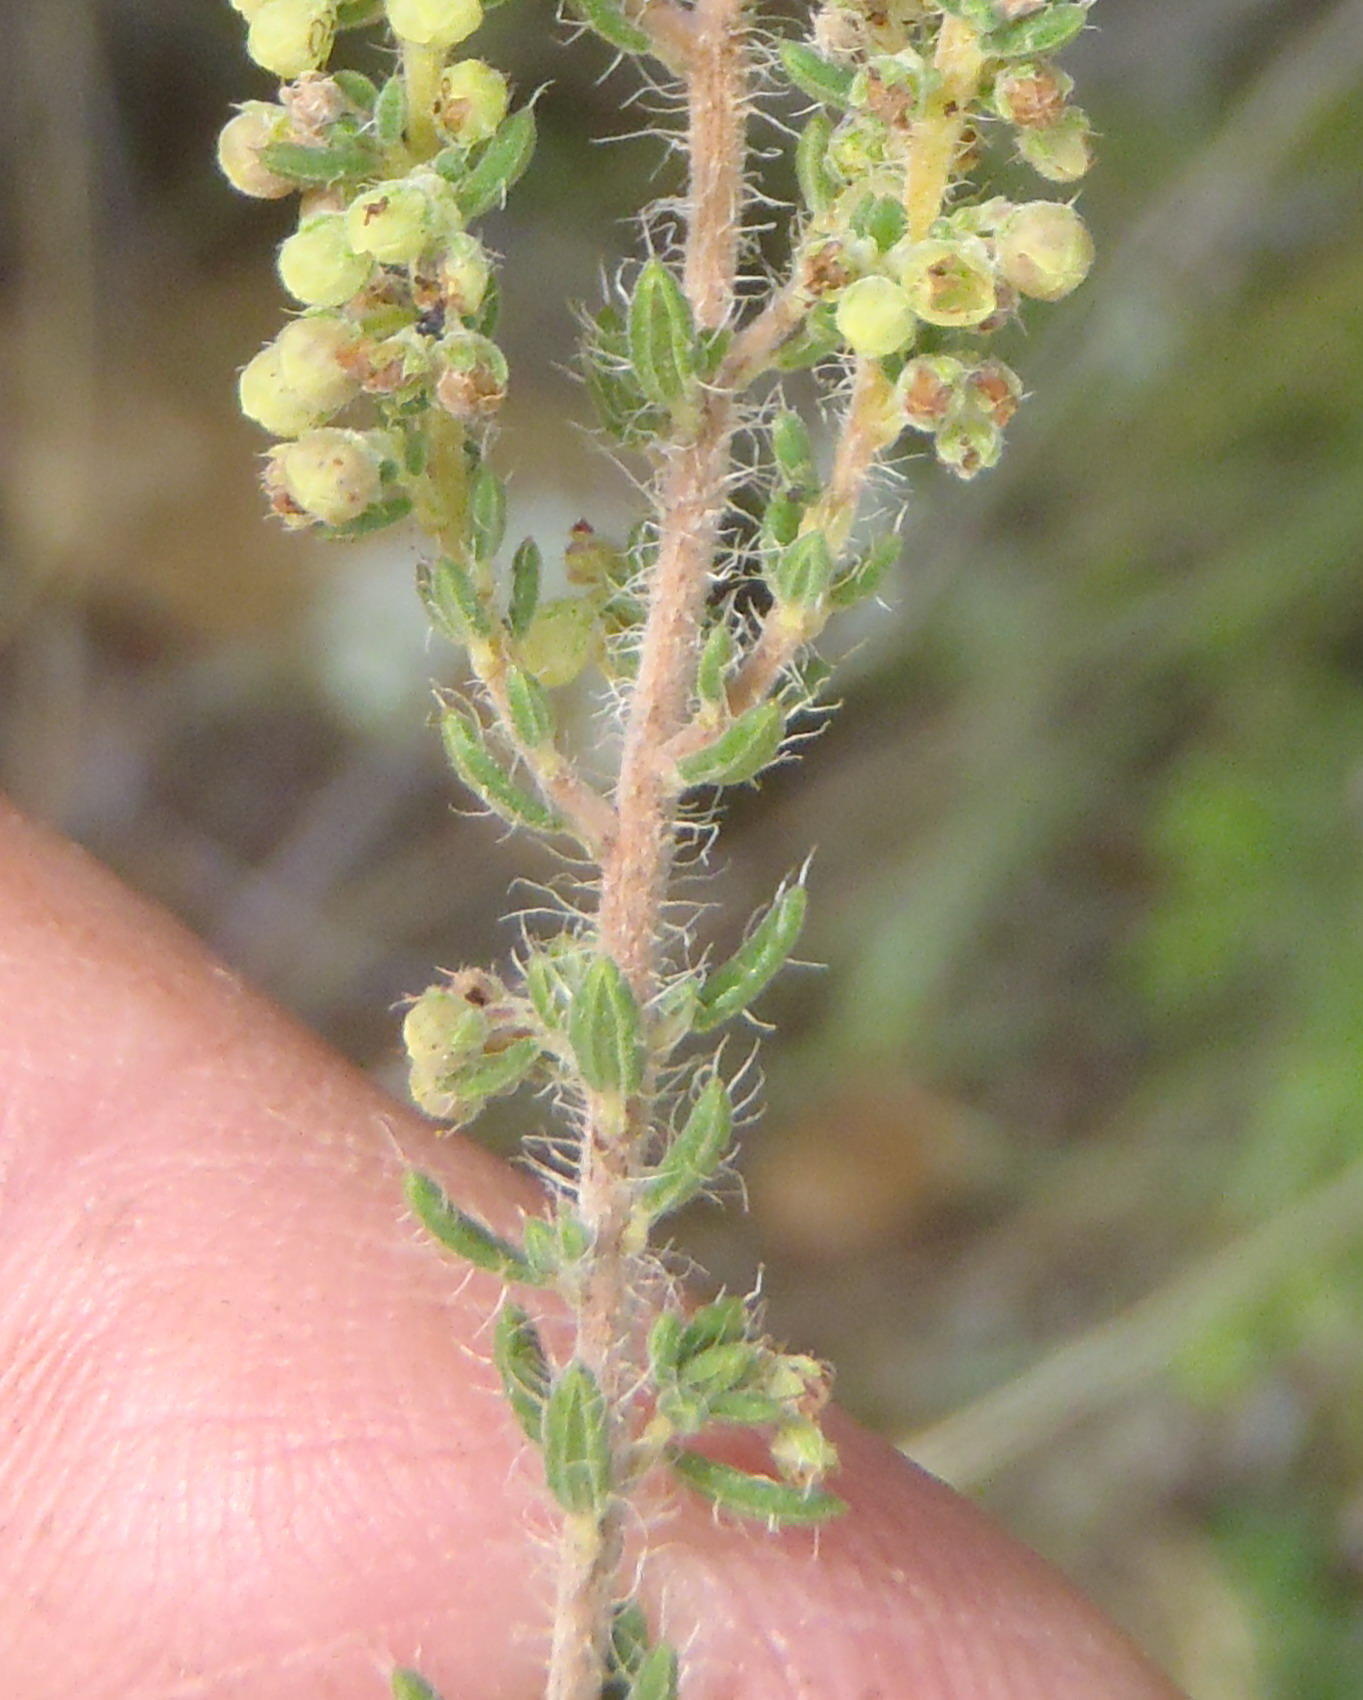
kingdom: Plantae
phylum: Tracheophyta
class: Magnoliopsida
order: Ericales
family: Ericaceae
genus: Erica
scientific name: Erica leucopelta
